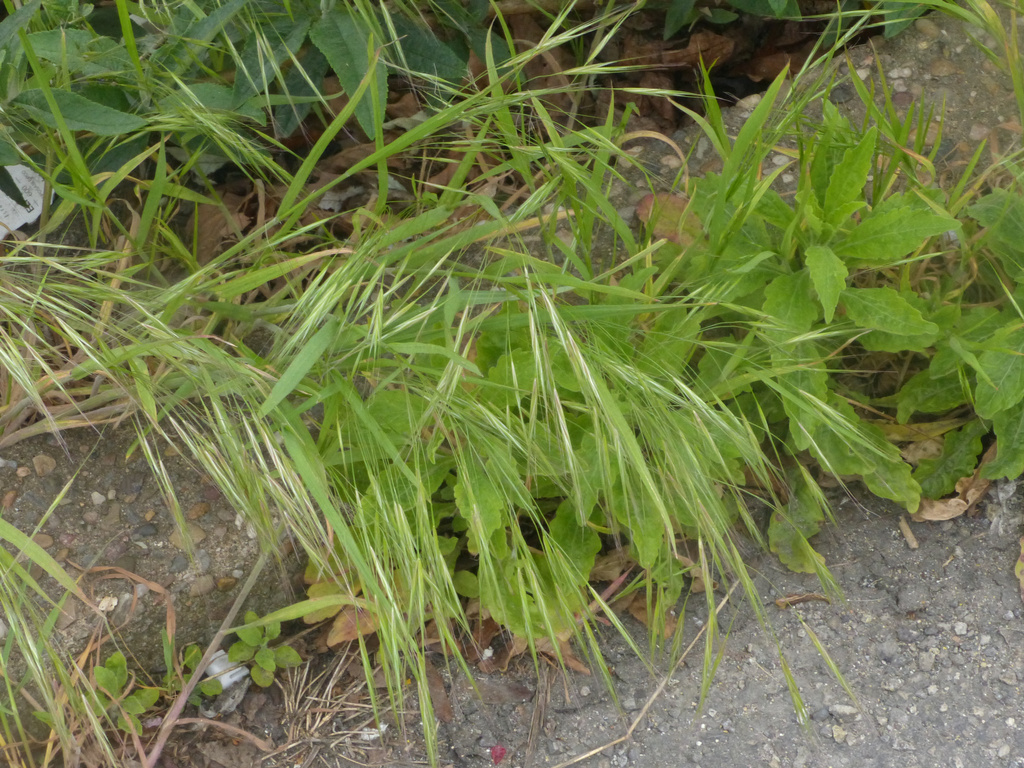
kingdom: Plantae
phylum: Tracheophyta
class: Liliopsida
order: Poales
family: Poaceae
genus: Bromus
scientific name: Bromus sterilis
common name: Poverty brome
